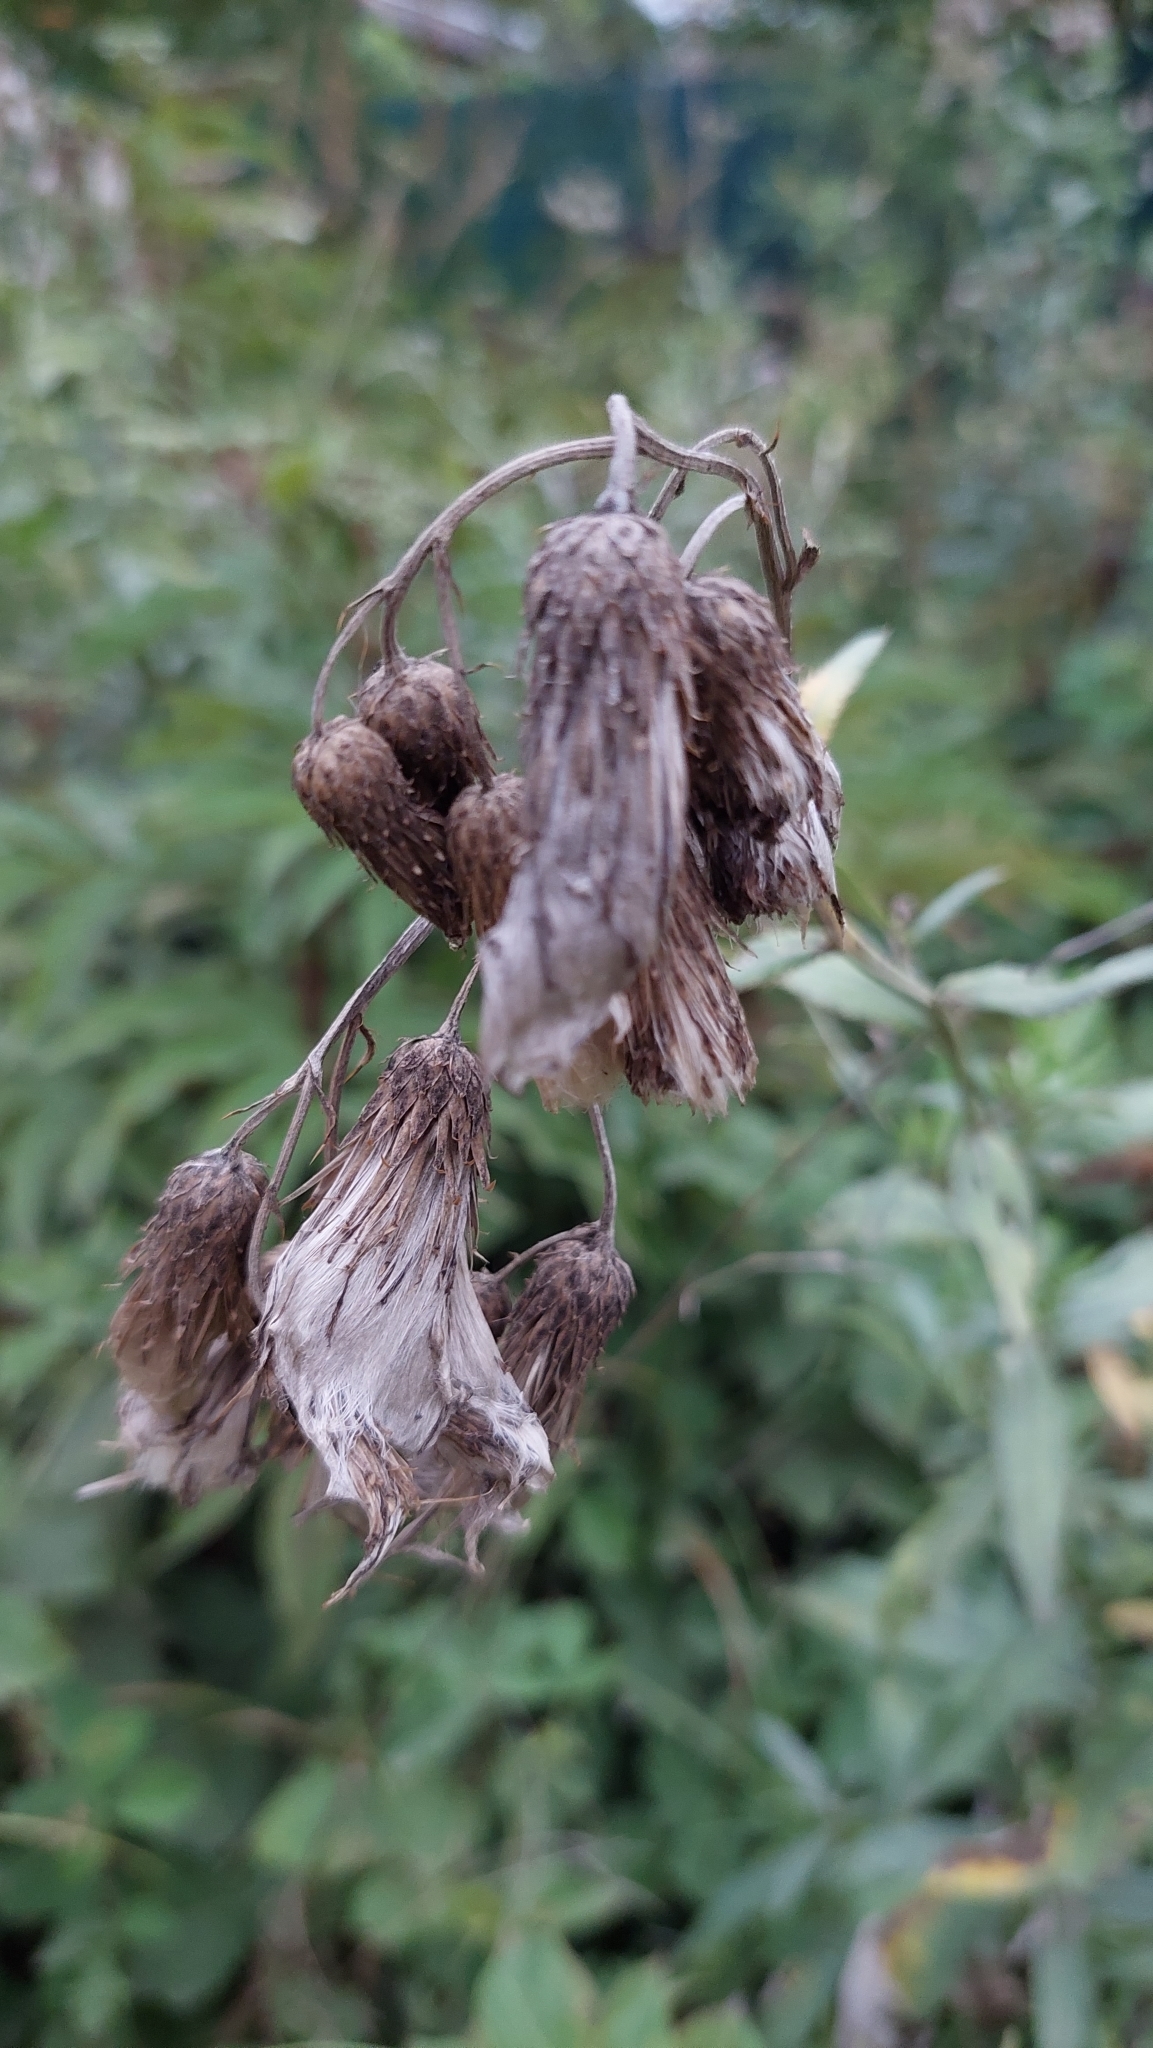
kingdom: Plantae
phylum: Tracheophyta
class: Magnoliopsida
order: Asterales
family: Asteraceae
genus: Cirsium
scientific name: Cirsium arvense
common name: Creeping thistle
